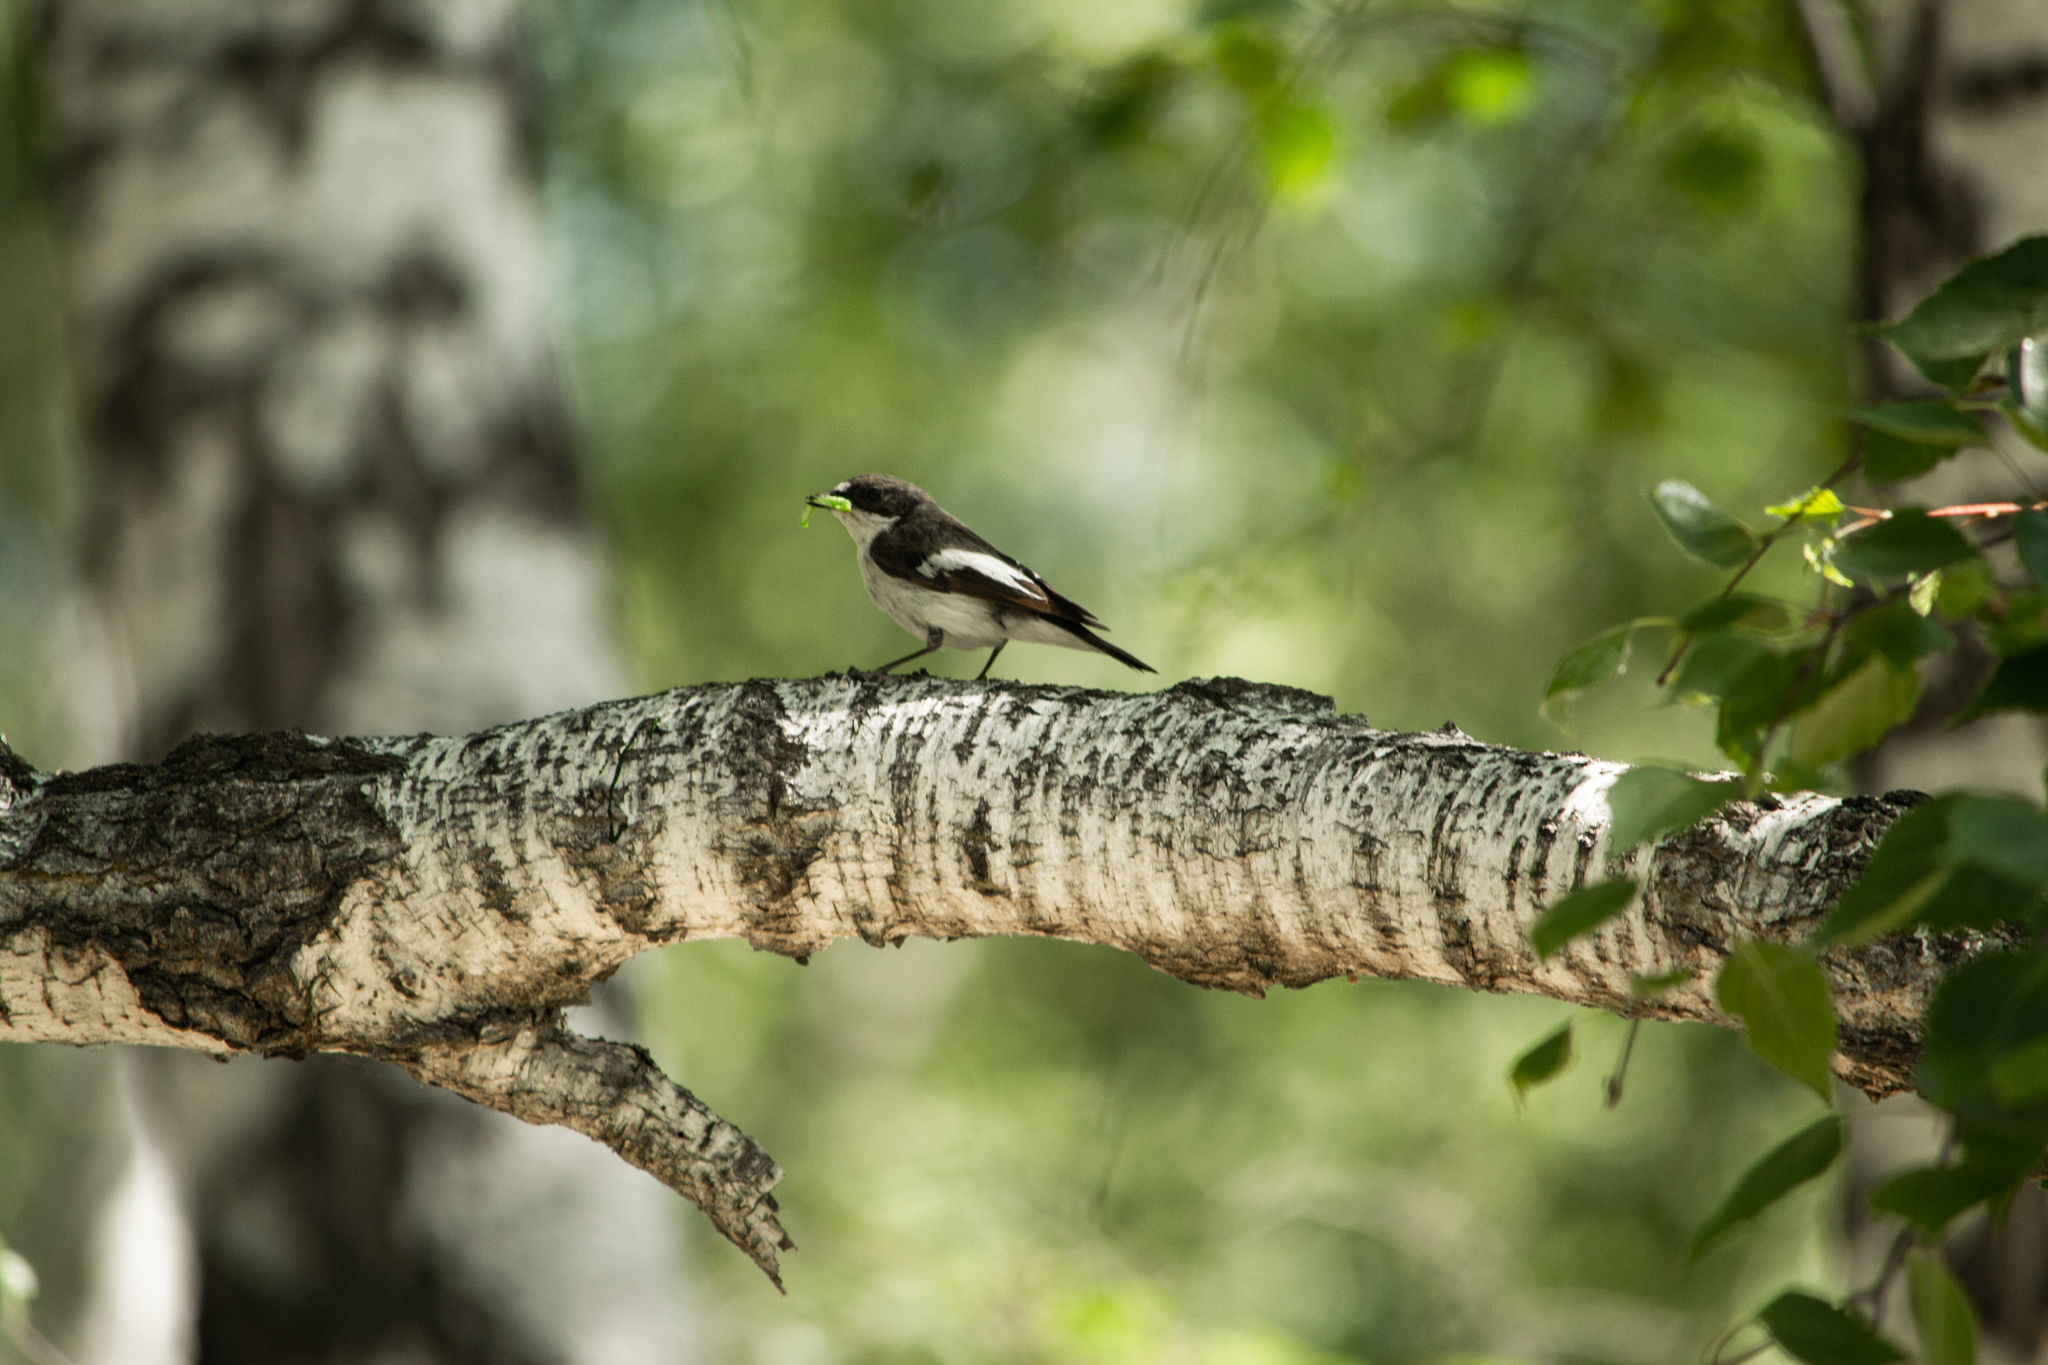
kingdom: Animalia
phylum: Chordata
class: Aves
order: Passeriformes
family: Muscicapidae
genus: Ficedula
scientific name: Ficedula hypoleuca
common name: European pied flycatcher
